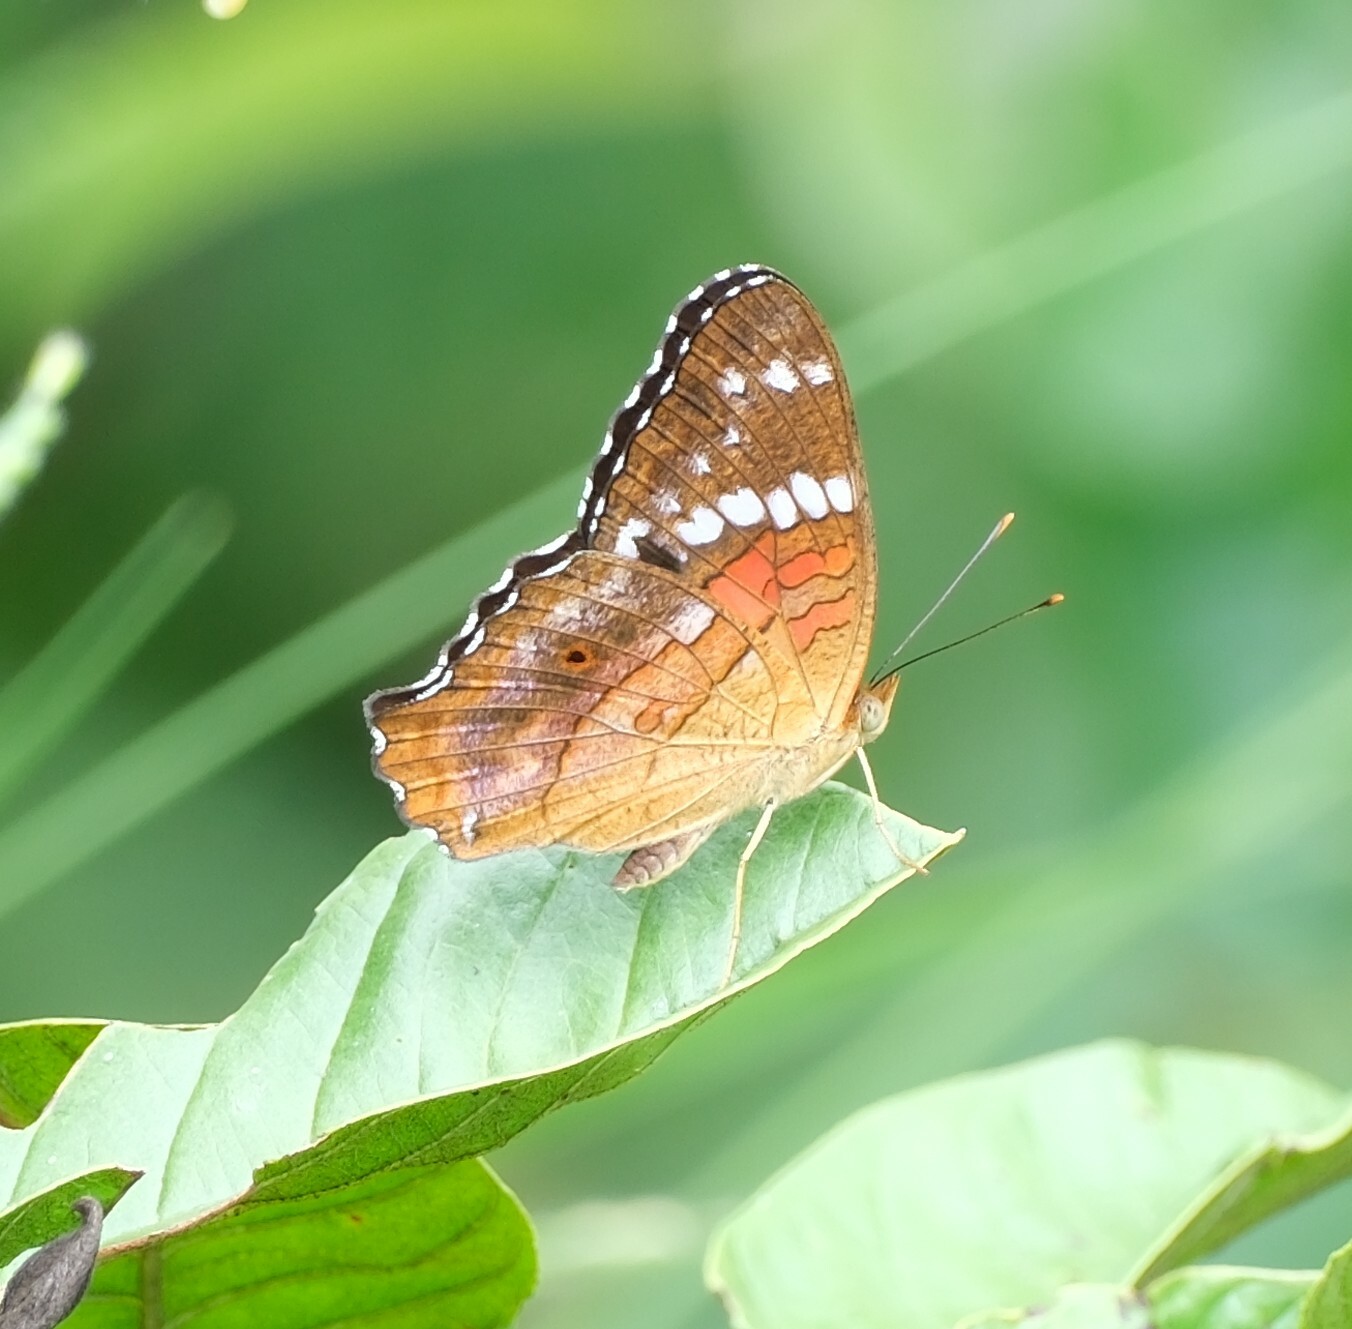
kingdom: Animalia
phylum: Arthropoda
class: Insecta
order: Lepidoptera
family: Nymphalidae
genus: Anartia
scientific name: Anartia amathea
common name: Red peacock
